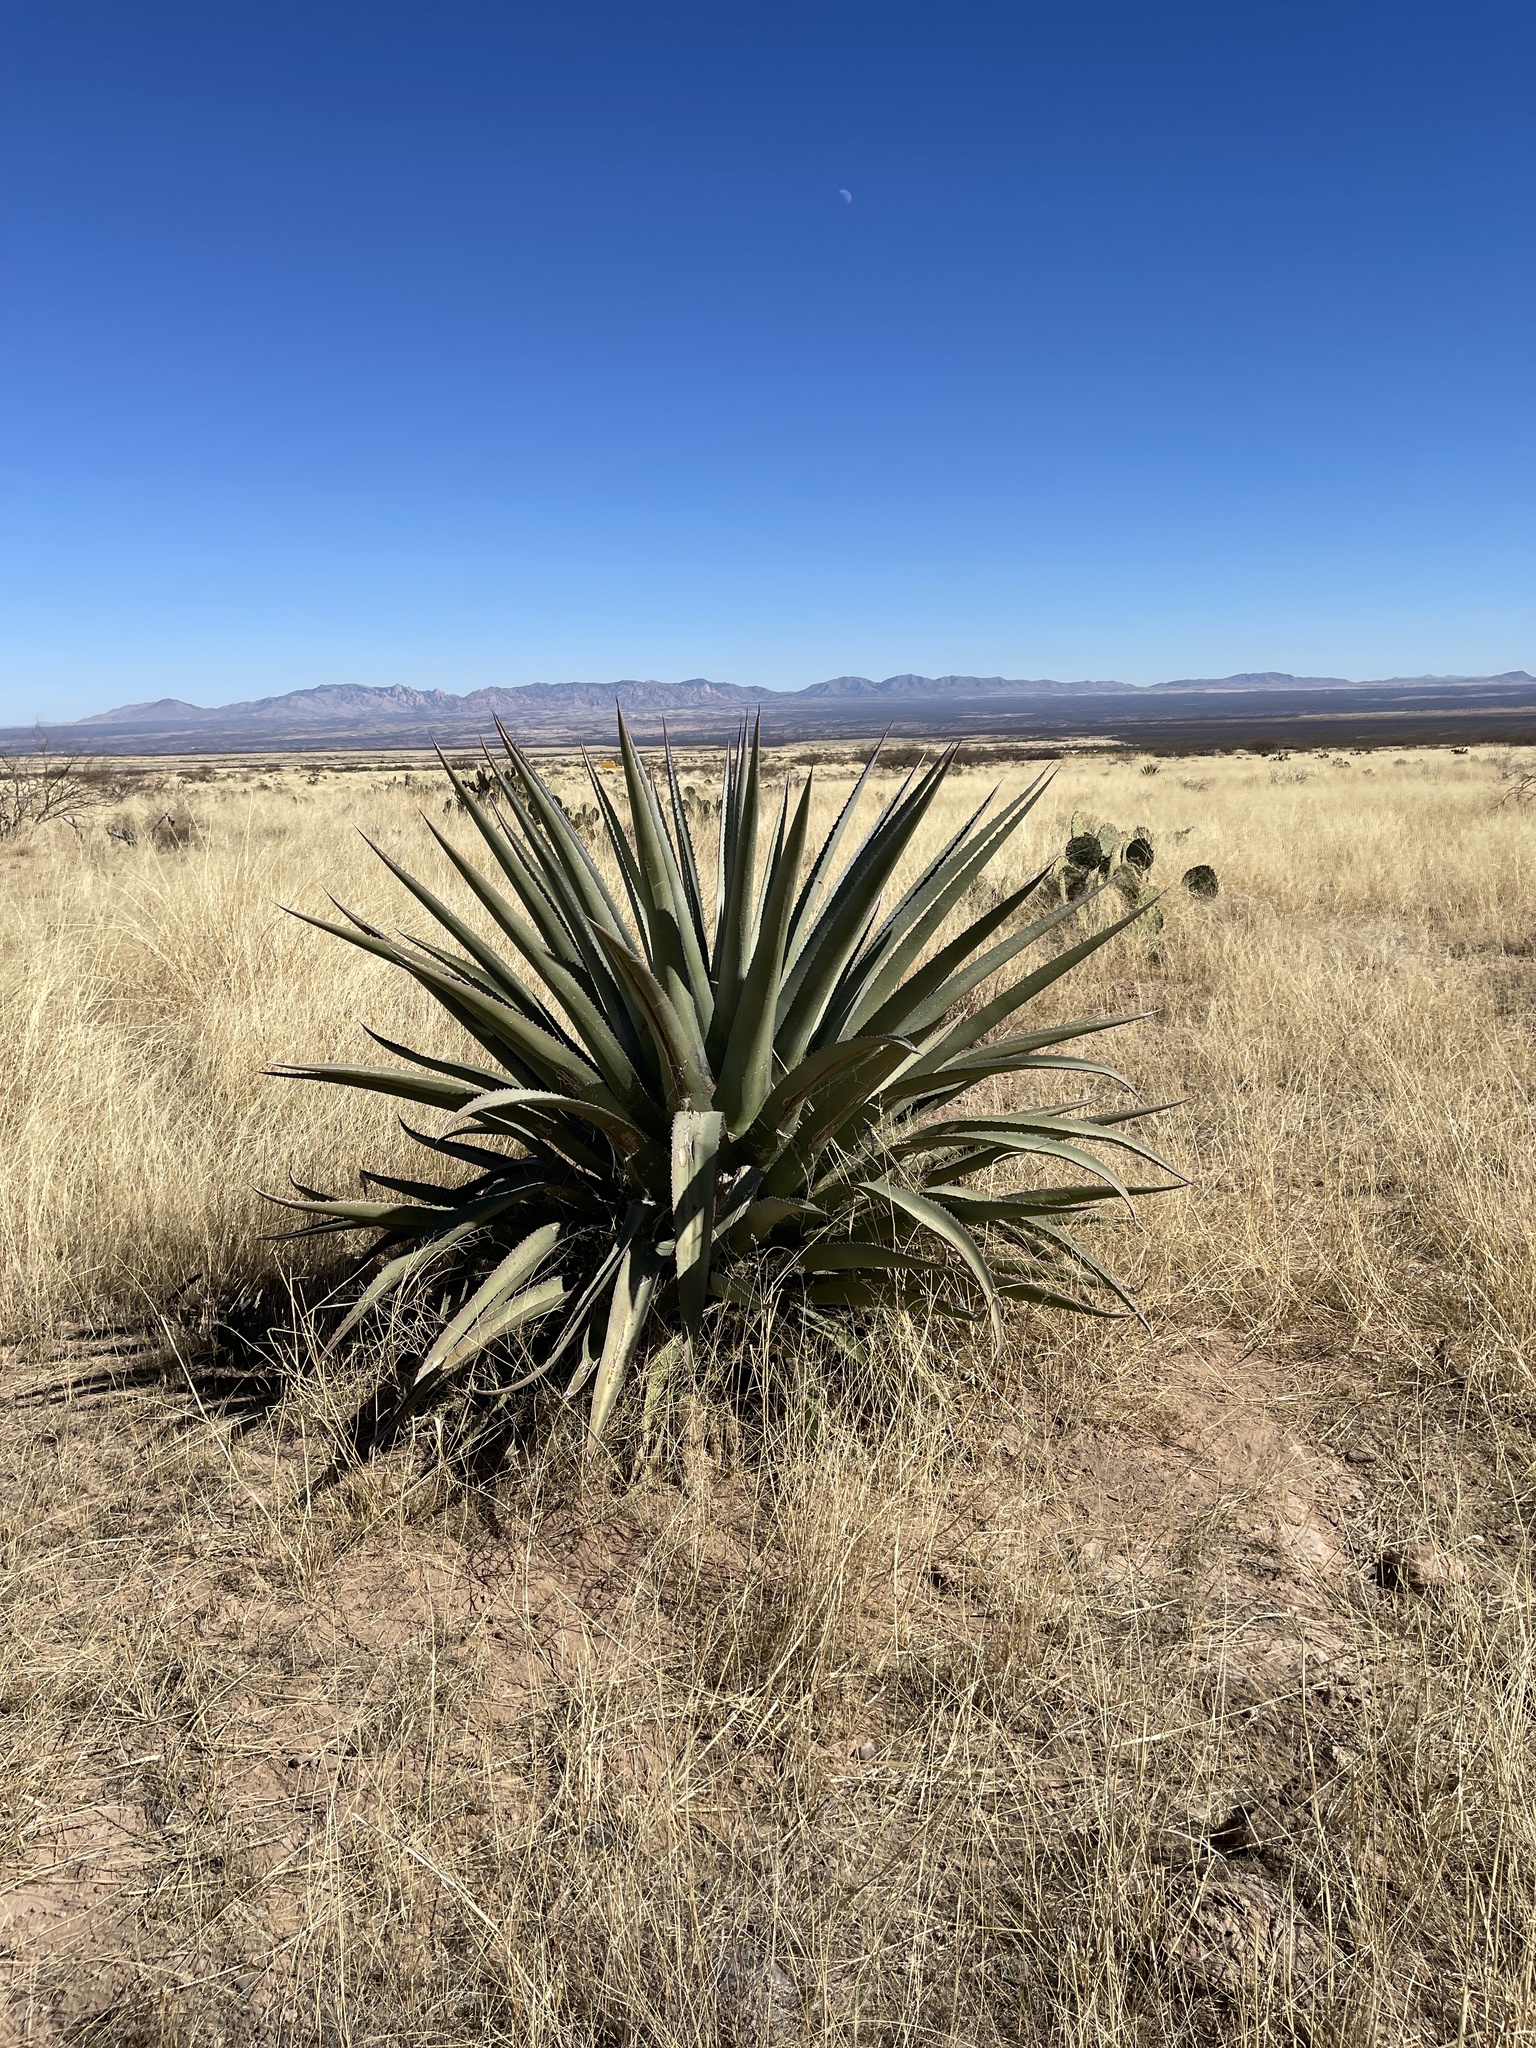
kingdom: Plantae
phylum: Tracheophyta
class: Liliopsida
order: Asparagales
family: Asparagaceae
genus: Agave
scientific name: Agave palmeri
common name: Palmer agave
